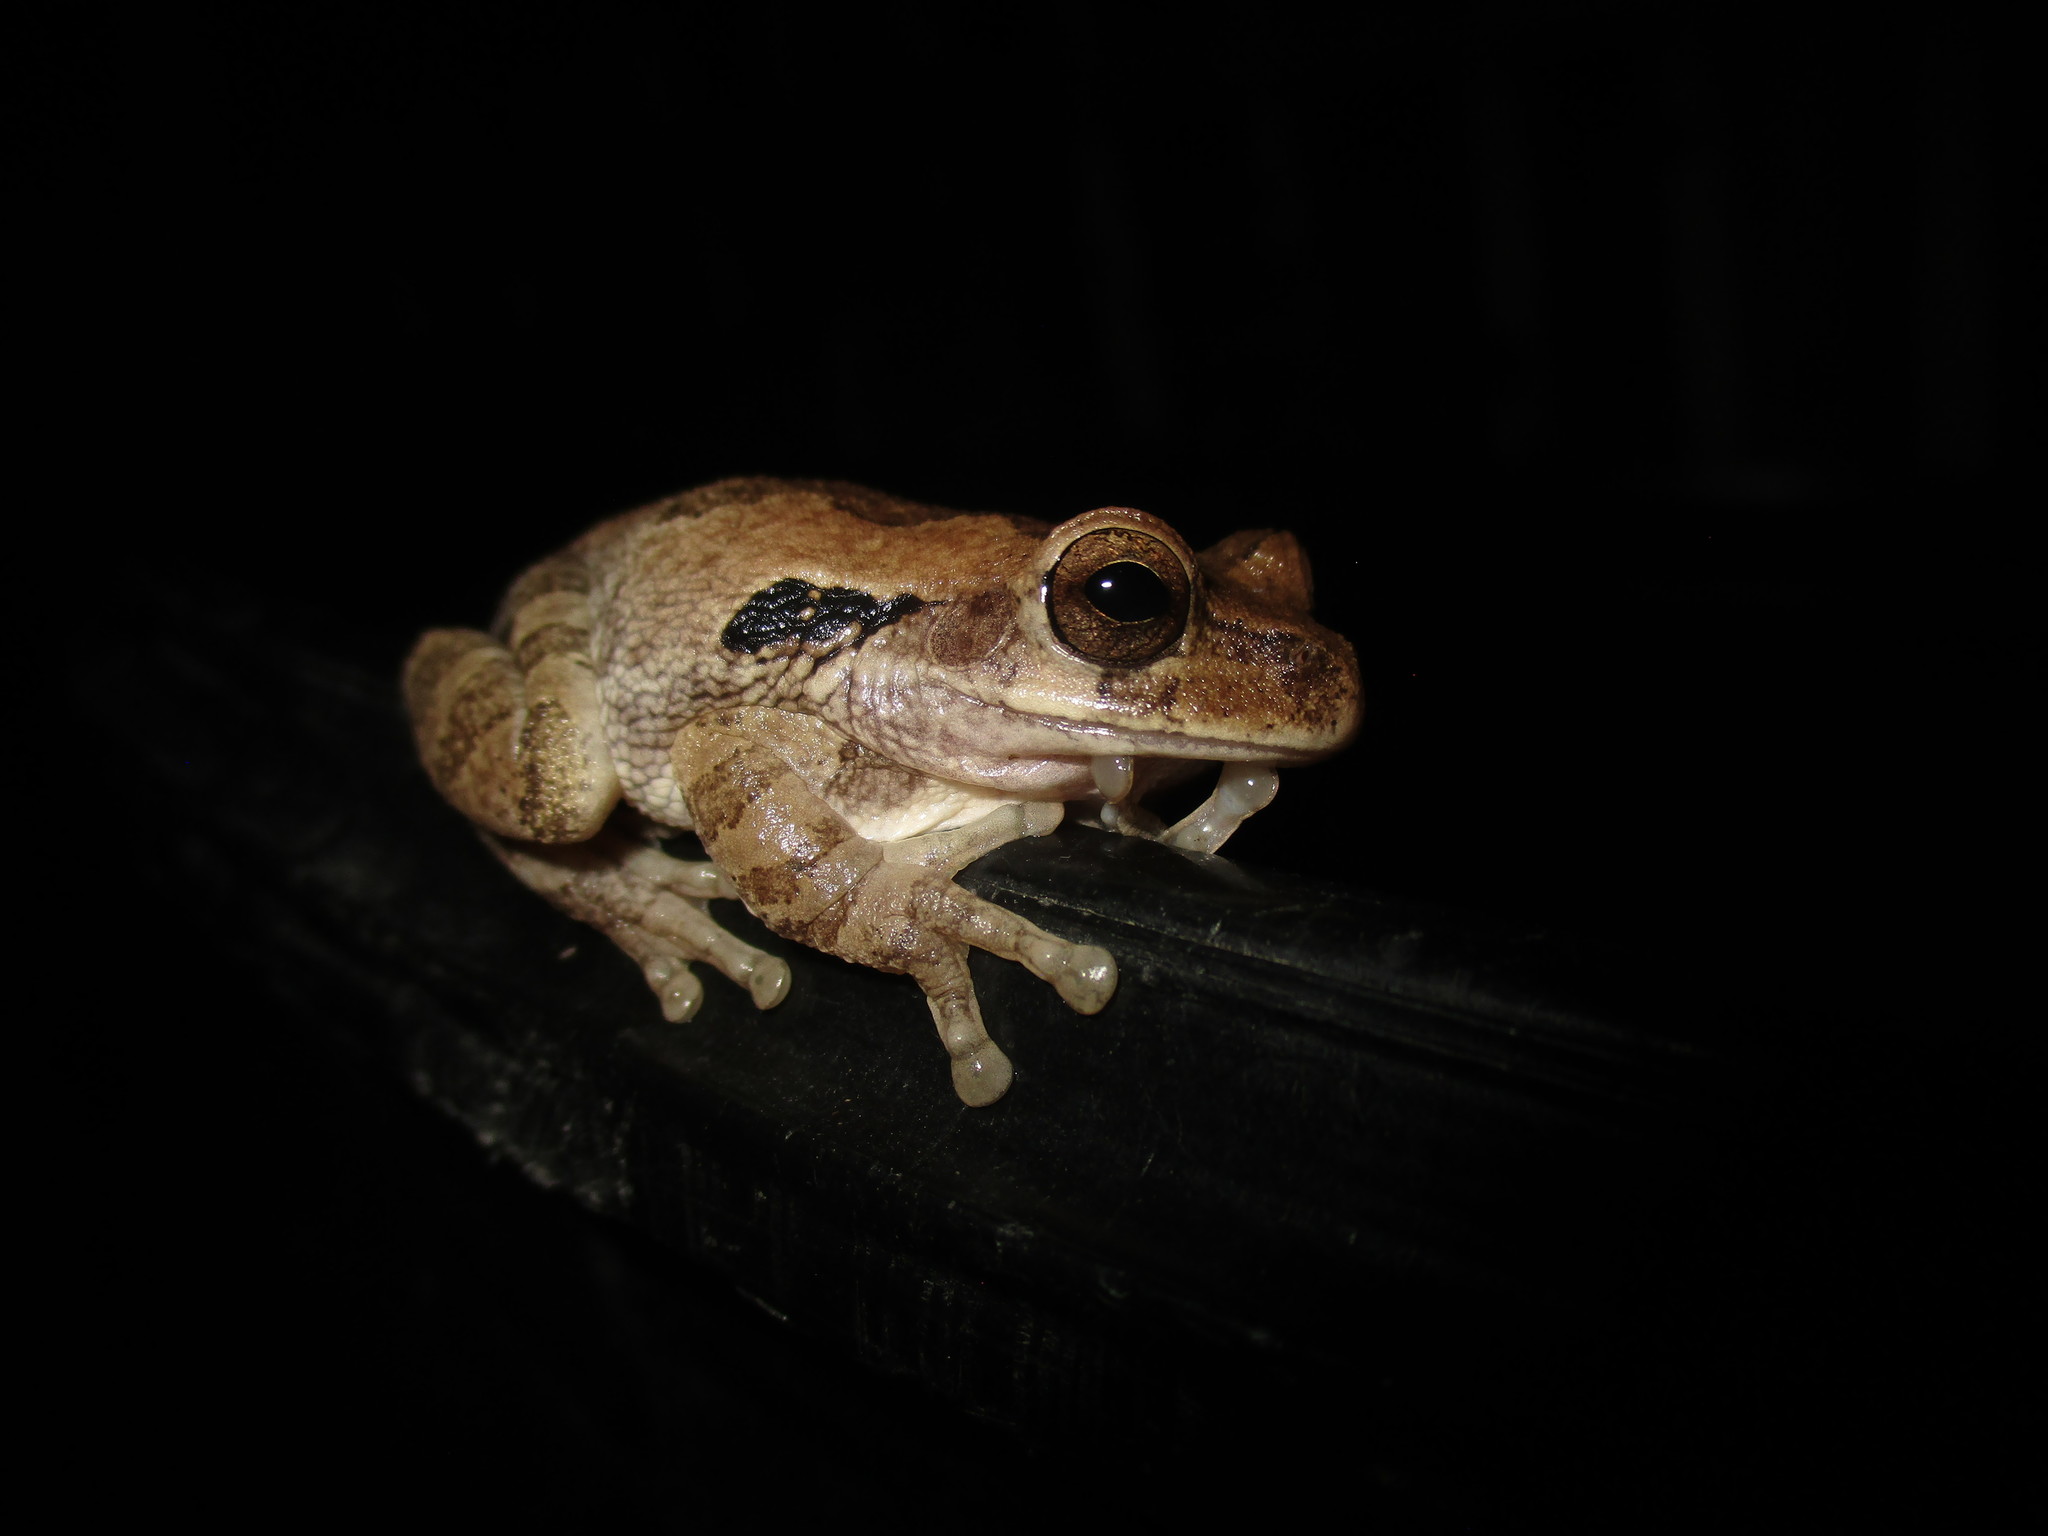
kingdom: Animalia
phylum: Chordata
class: Amphibia
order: Anura
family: Hylidae
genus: Smilisca
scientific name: Smilisca baudinii
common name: Mexican smilisca
